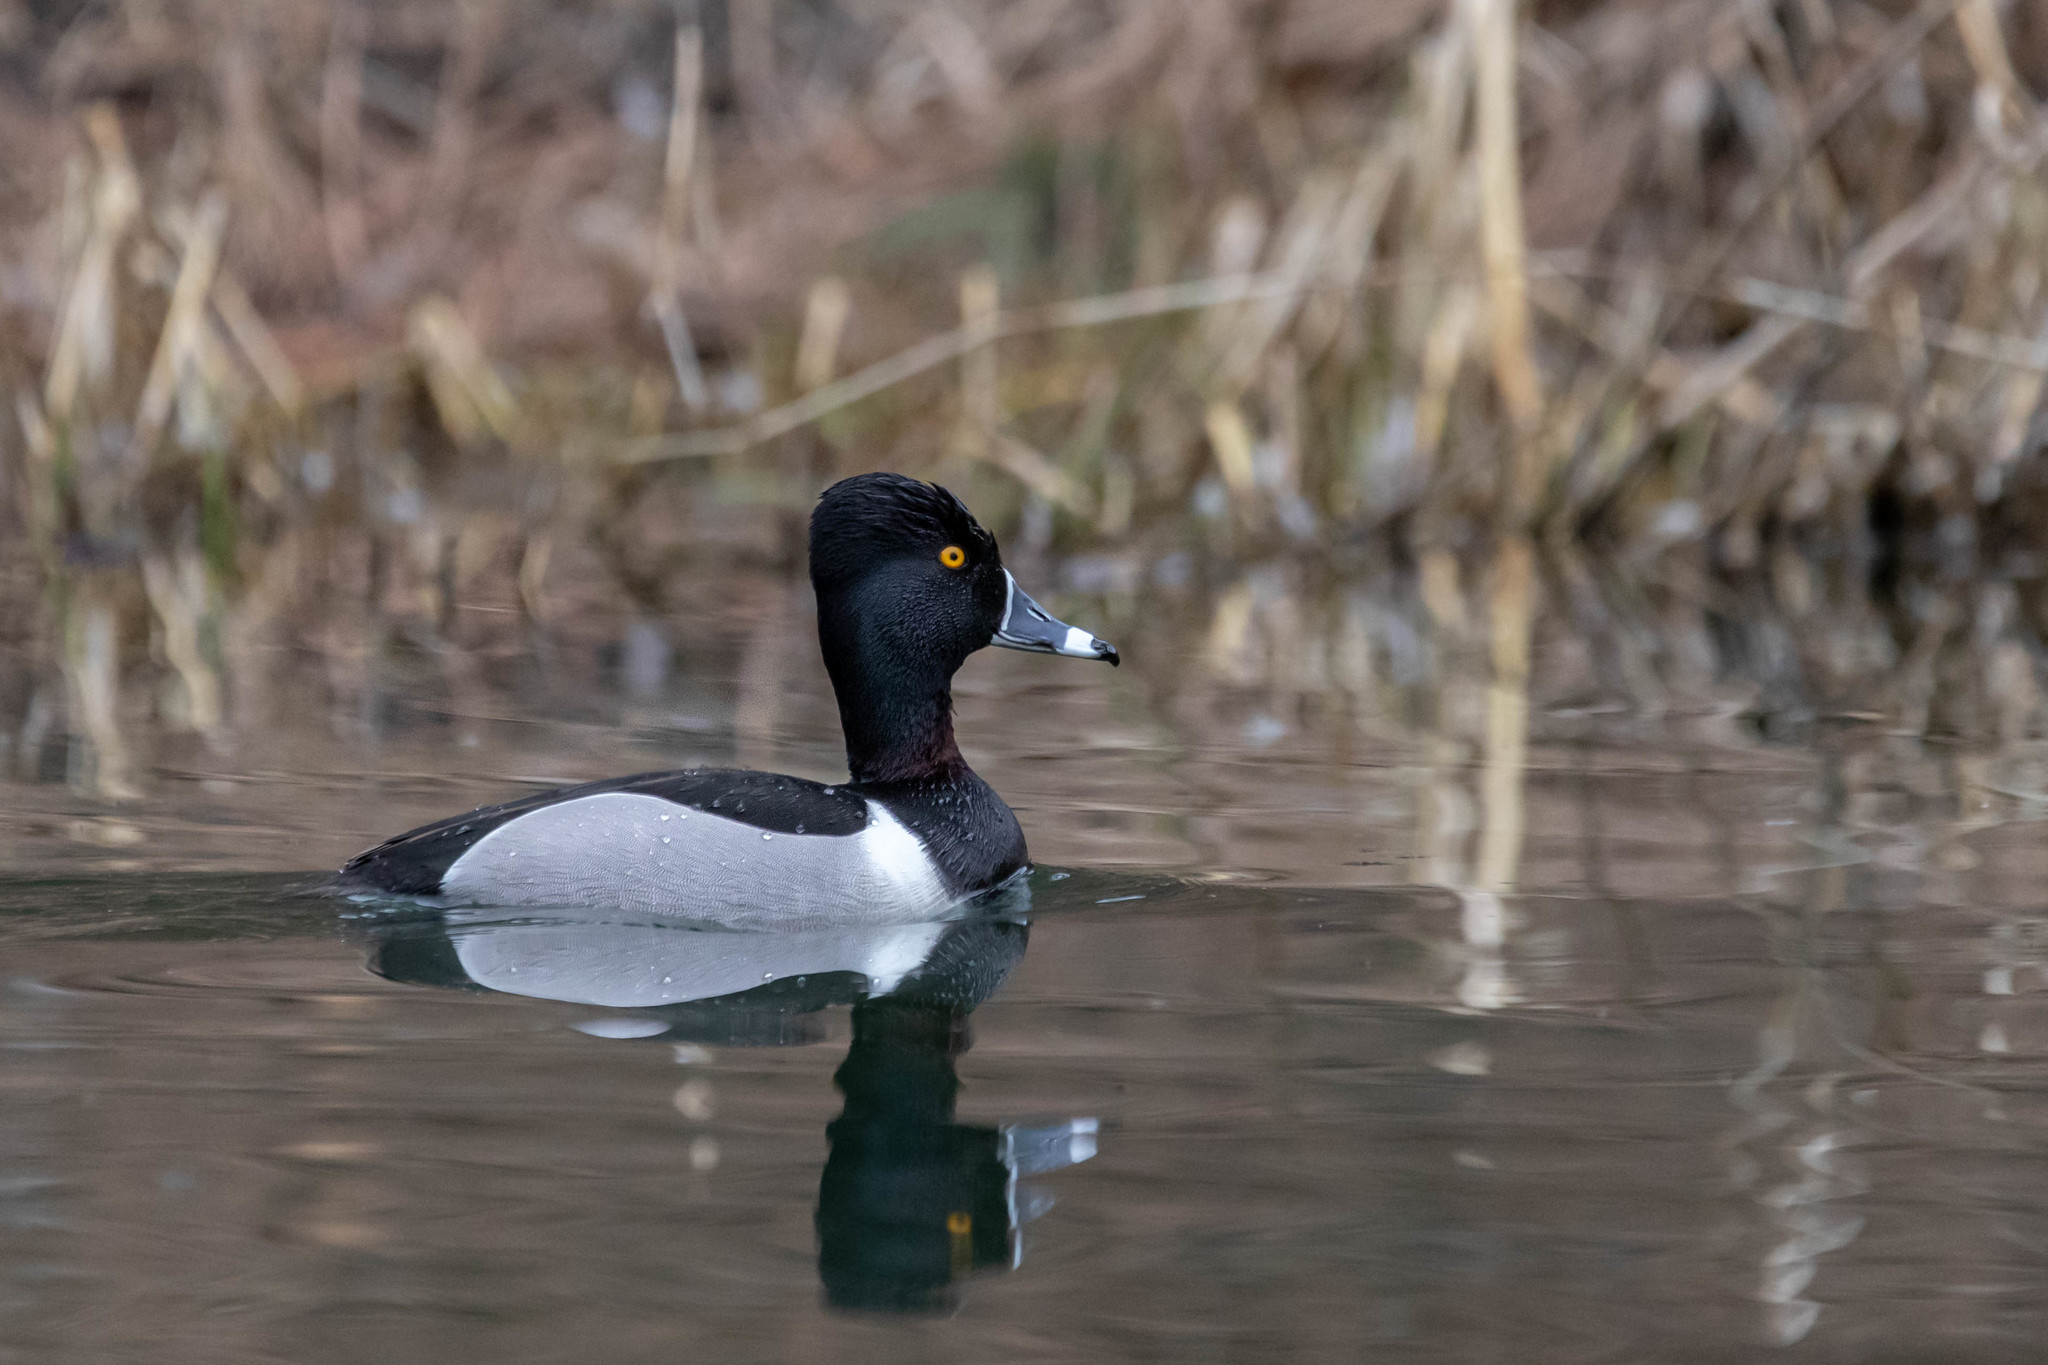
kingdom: Animalia
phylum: Chordata
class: Aves
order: Anseriformes
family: Anatidae
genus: Aythya
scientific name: Aythya collaris
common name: Ring-necked duck
